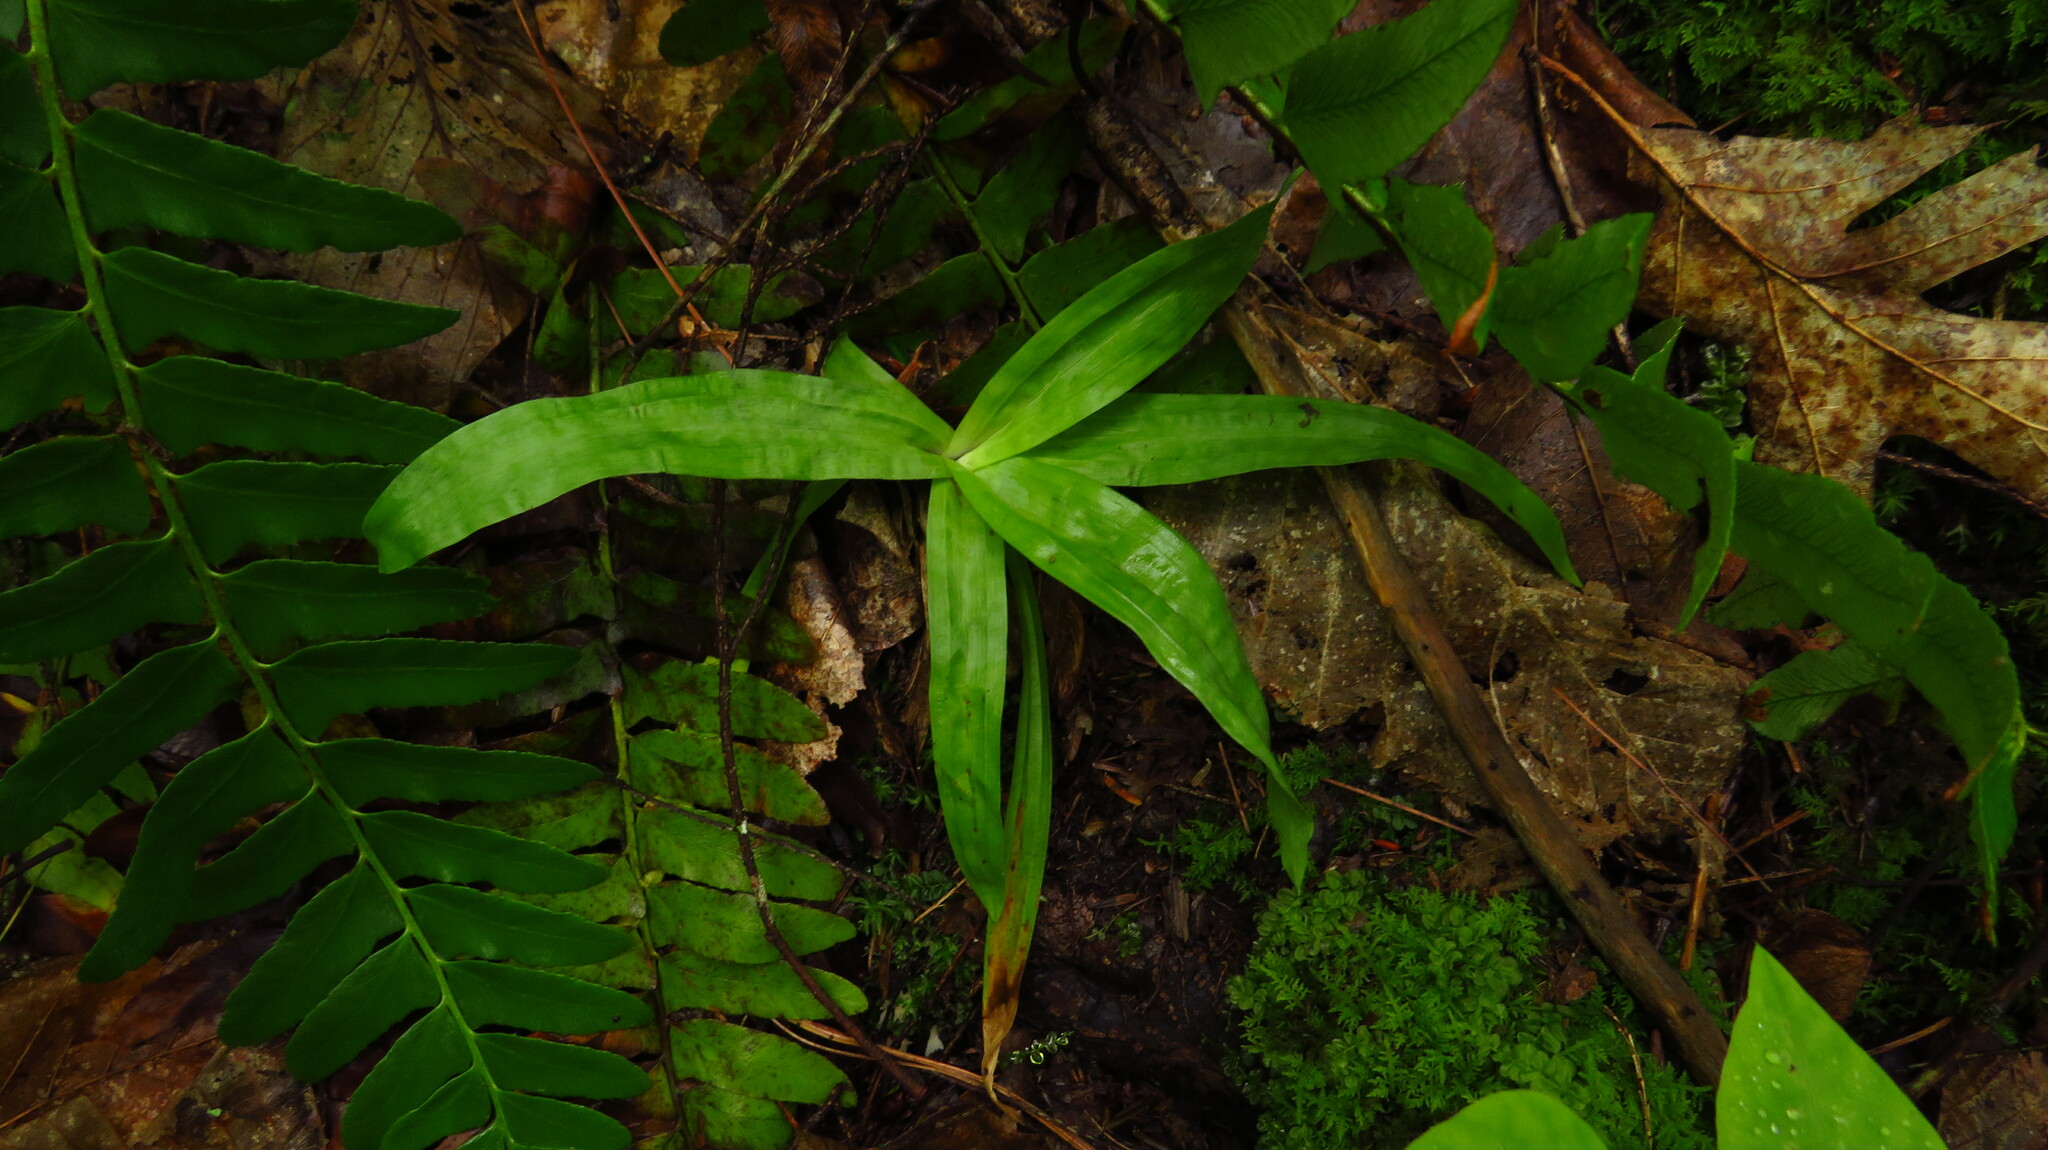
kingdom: Plantae
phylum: Tracheophyta
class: Liliopsida
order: Poales
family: Cyperaceae
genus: Carex
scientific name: Carex plantaginea
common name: Plantain-leaved sedge
